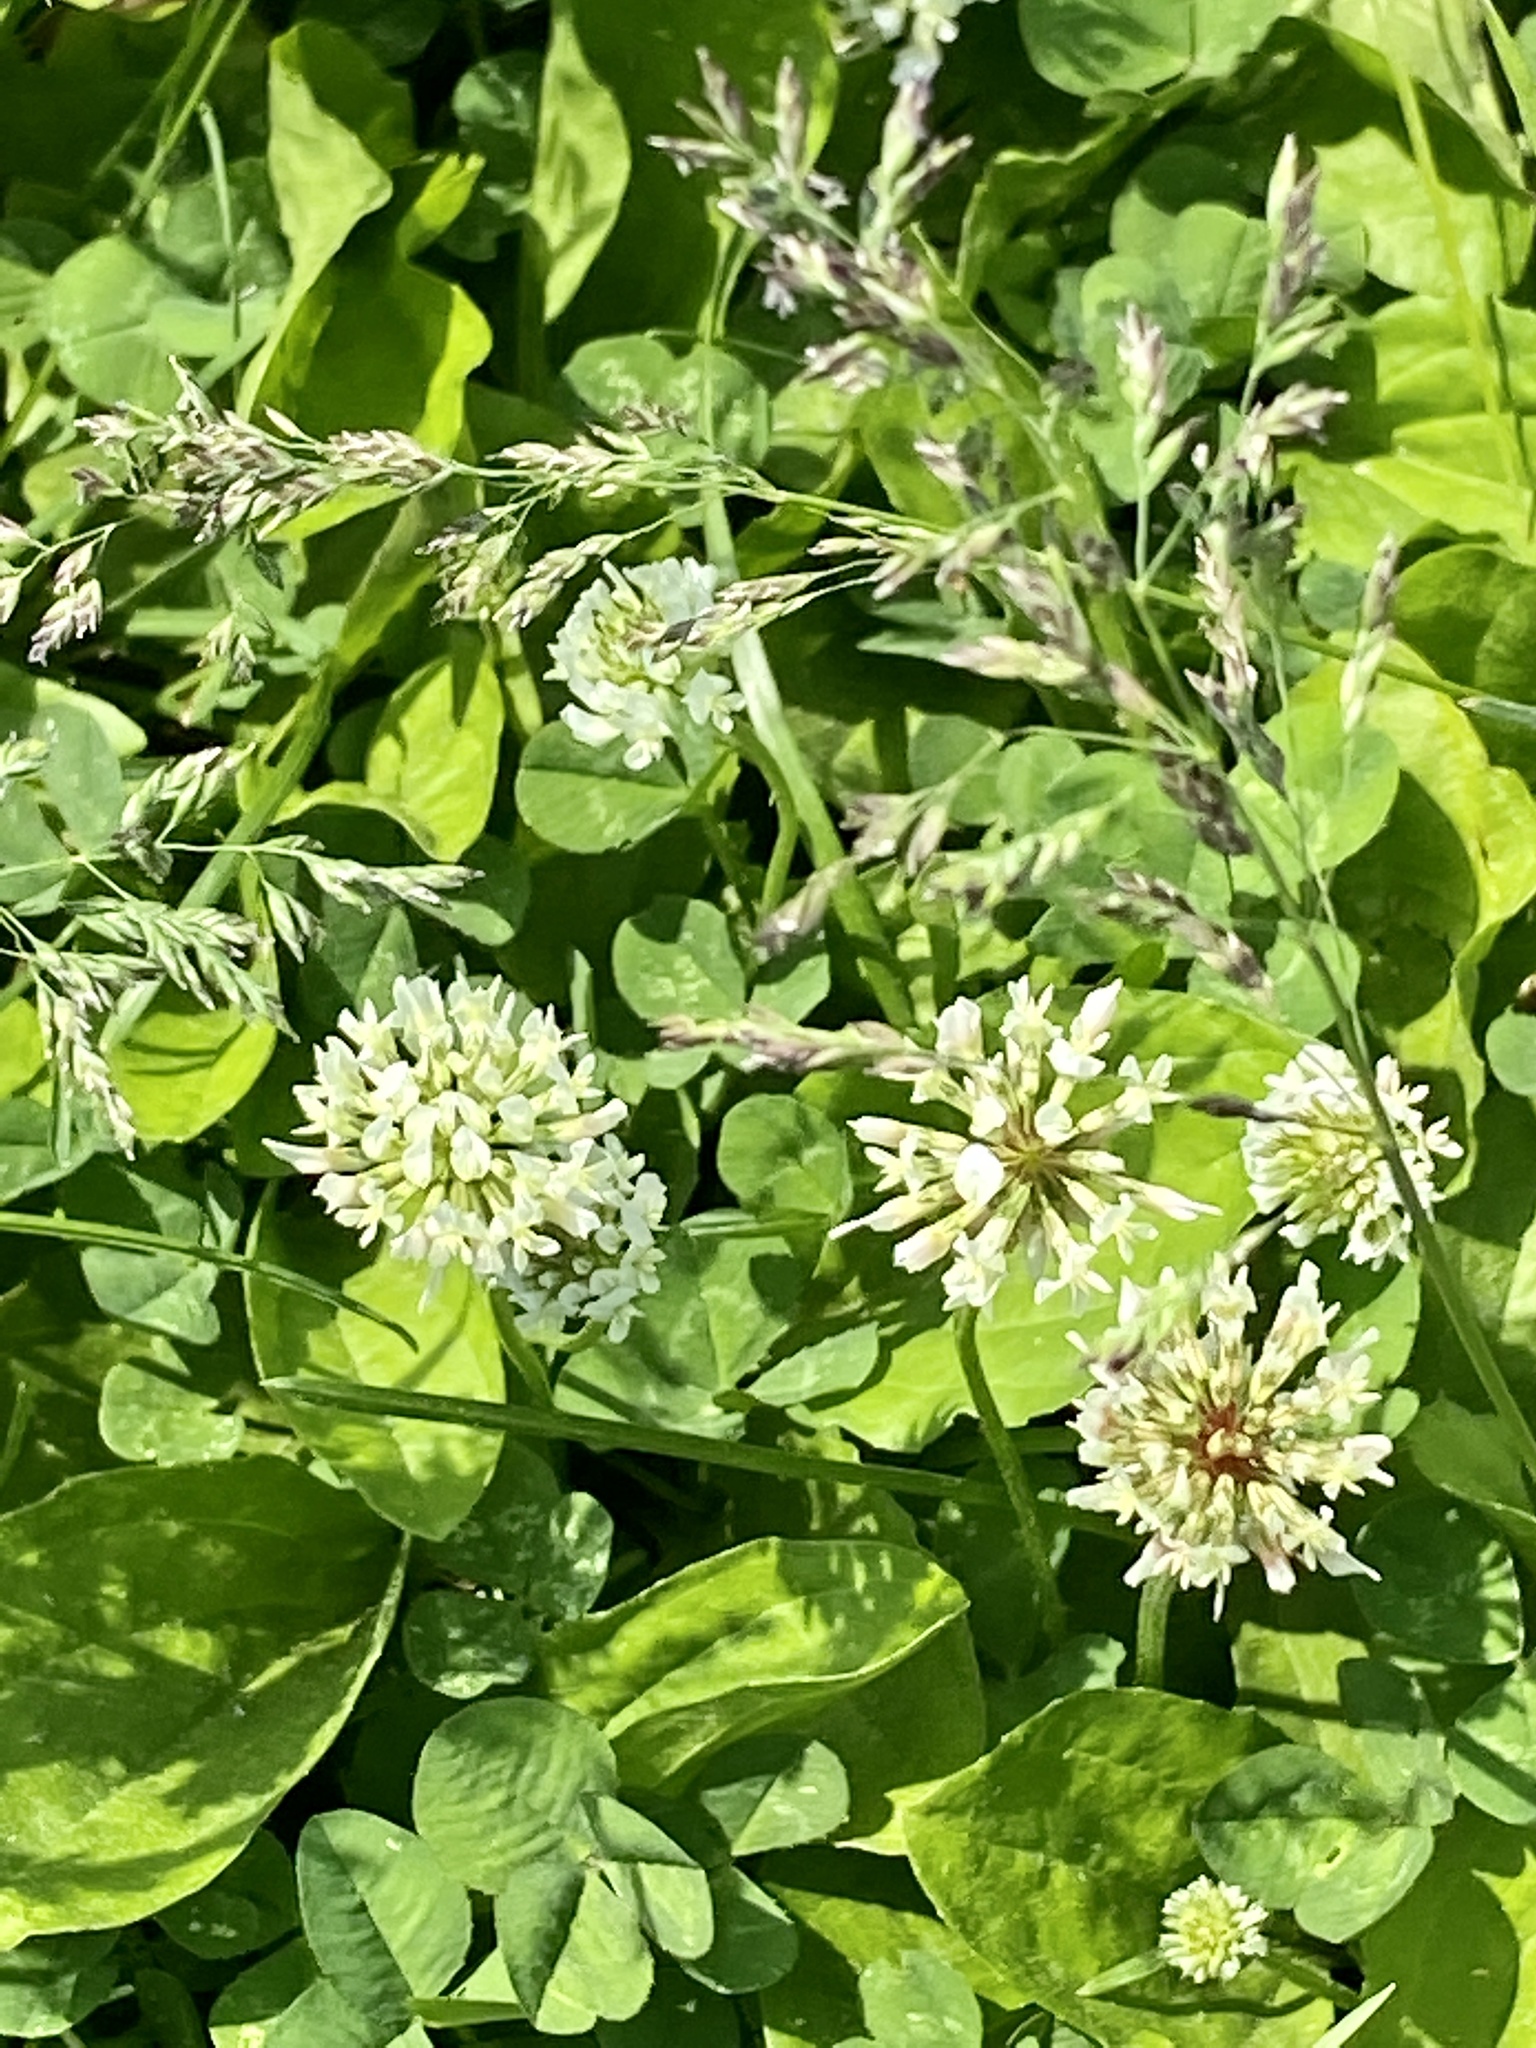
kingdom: Plantae
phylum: Tracheophyta
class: Magnoliopsida
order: Fabales
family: Fabaceae
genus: Trifolium
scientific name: Trifolium repens
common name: White clover
